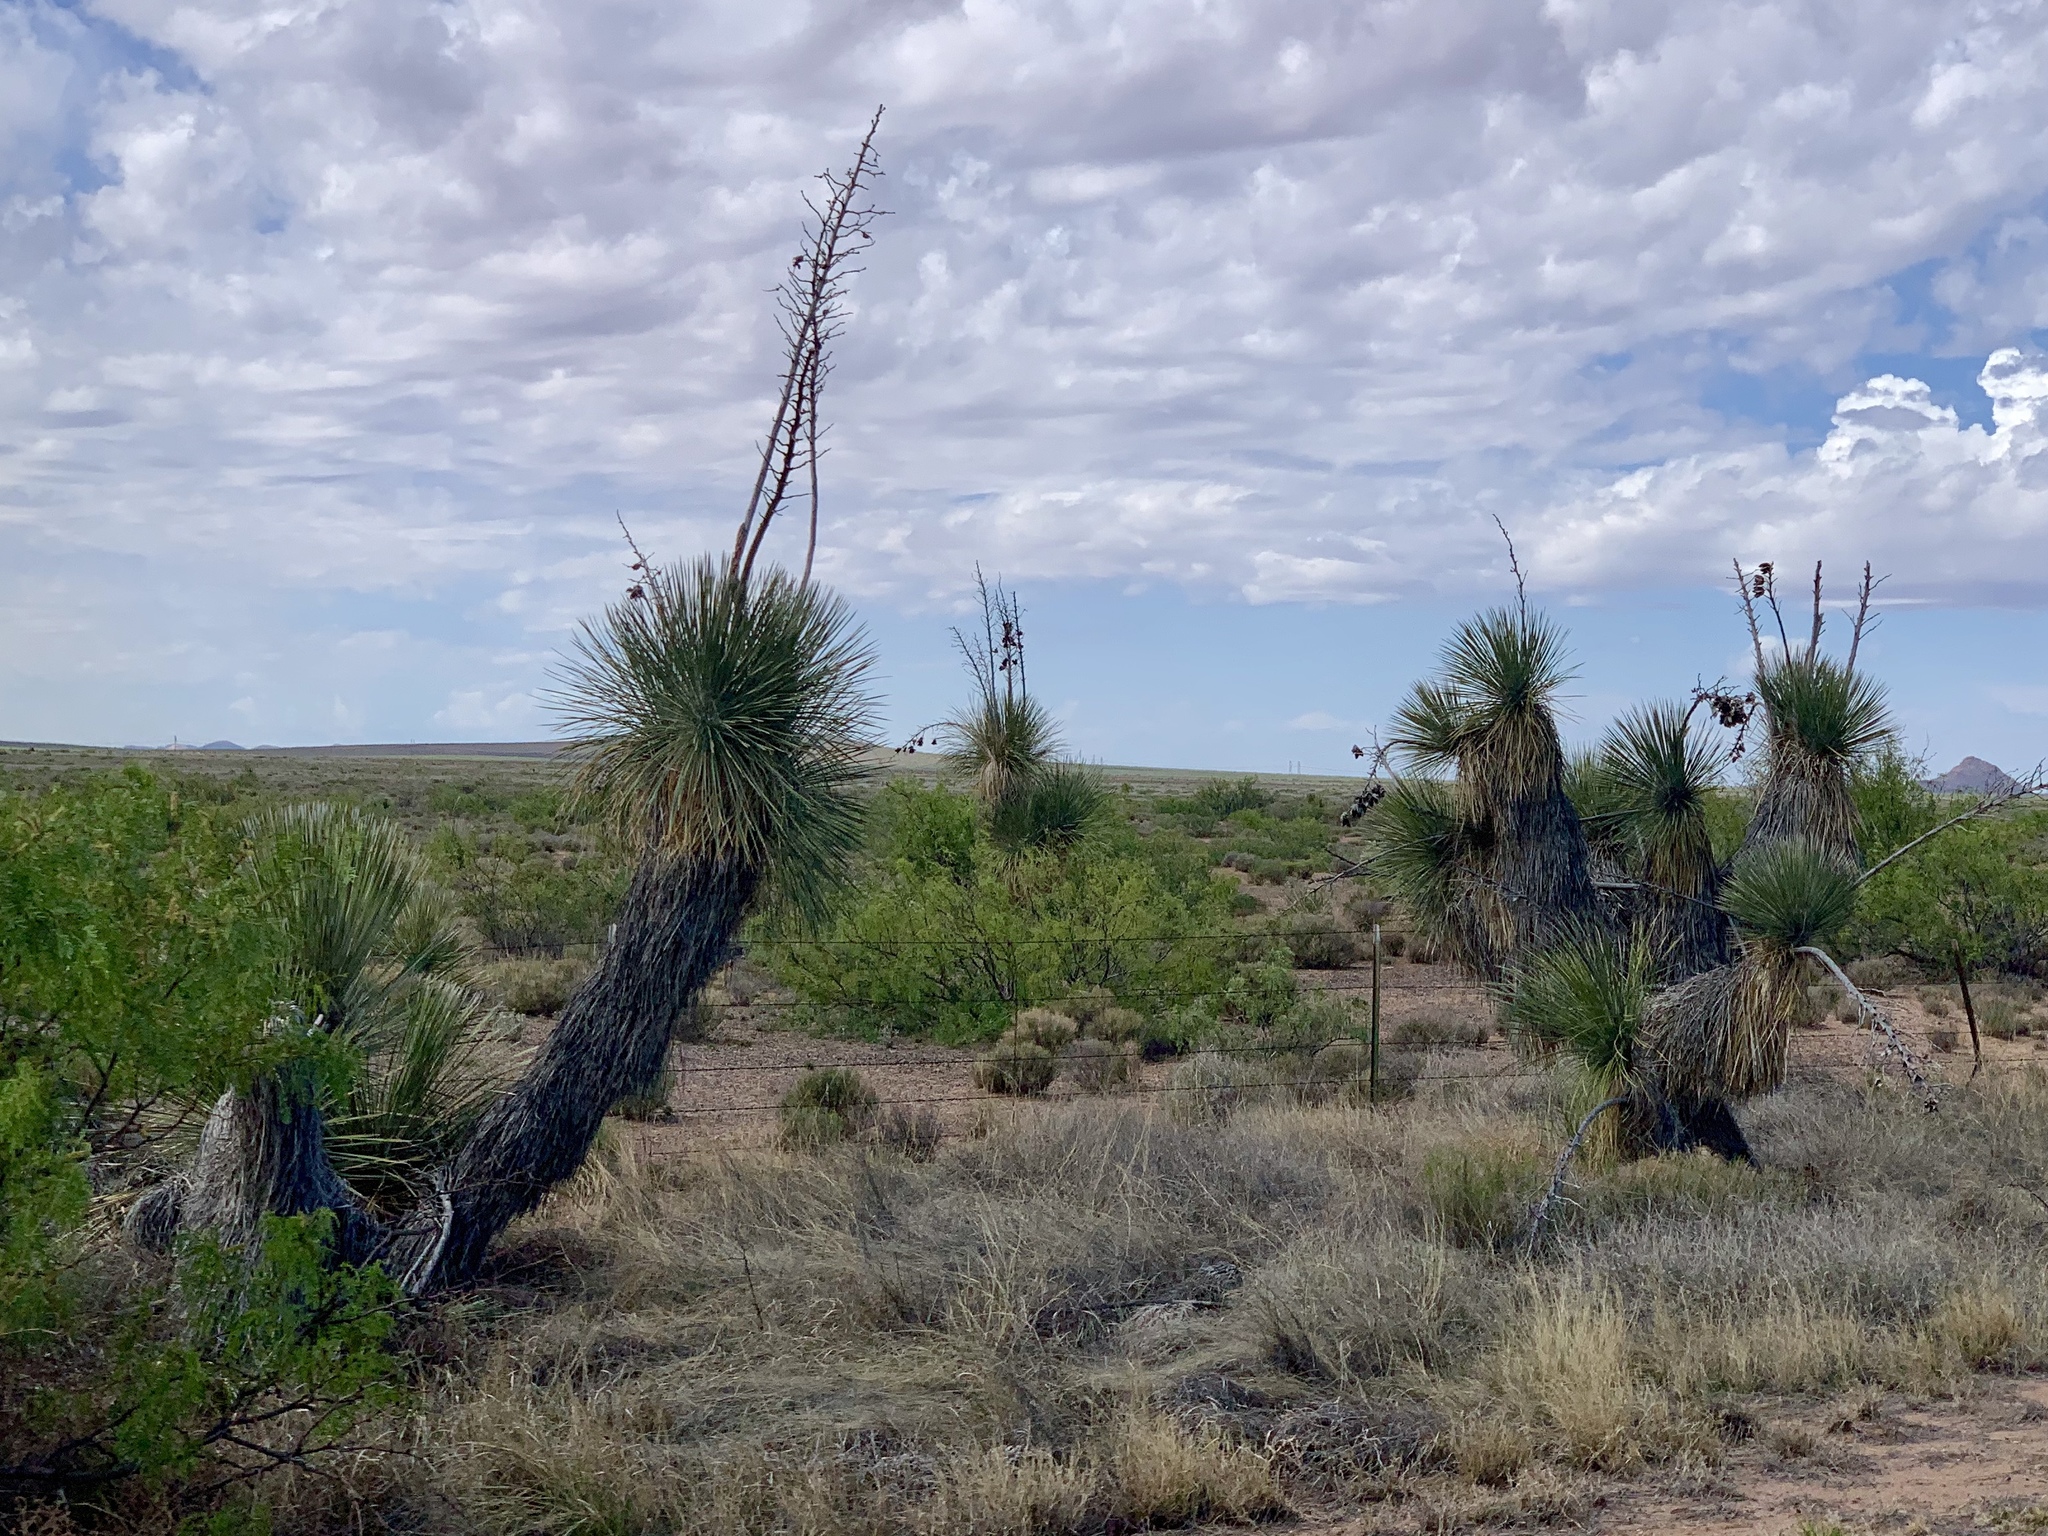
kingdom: Plantae
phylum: Tracheophyta
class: Liliopsida
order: Asparagales
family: Asparagaceae
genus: Yucca
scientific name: Yucca elata
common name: Palmella
